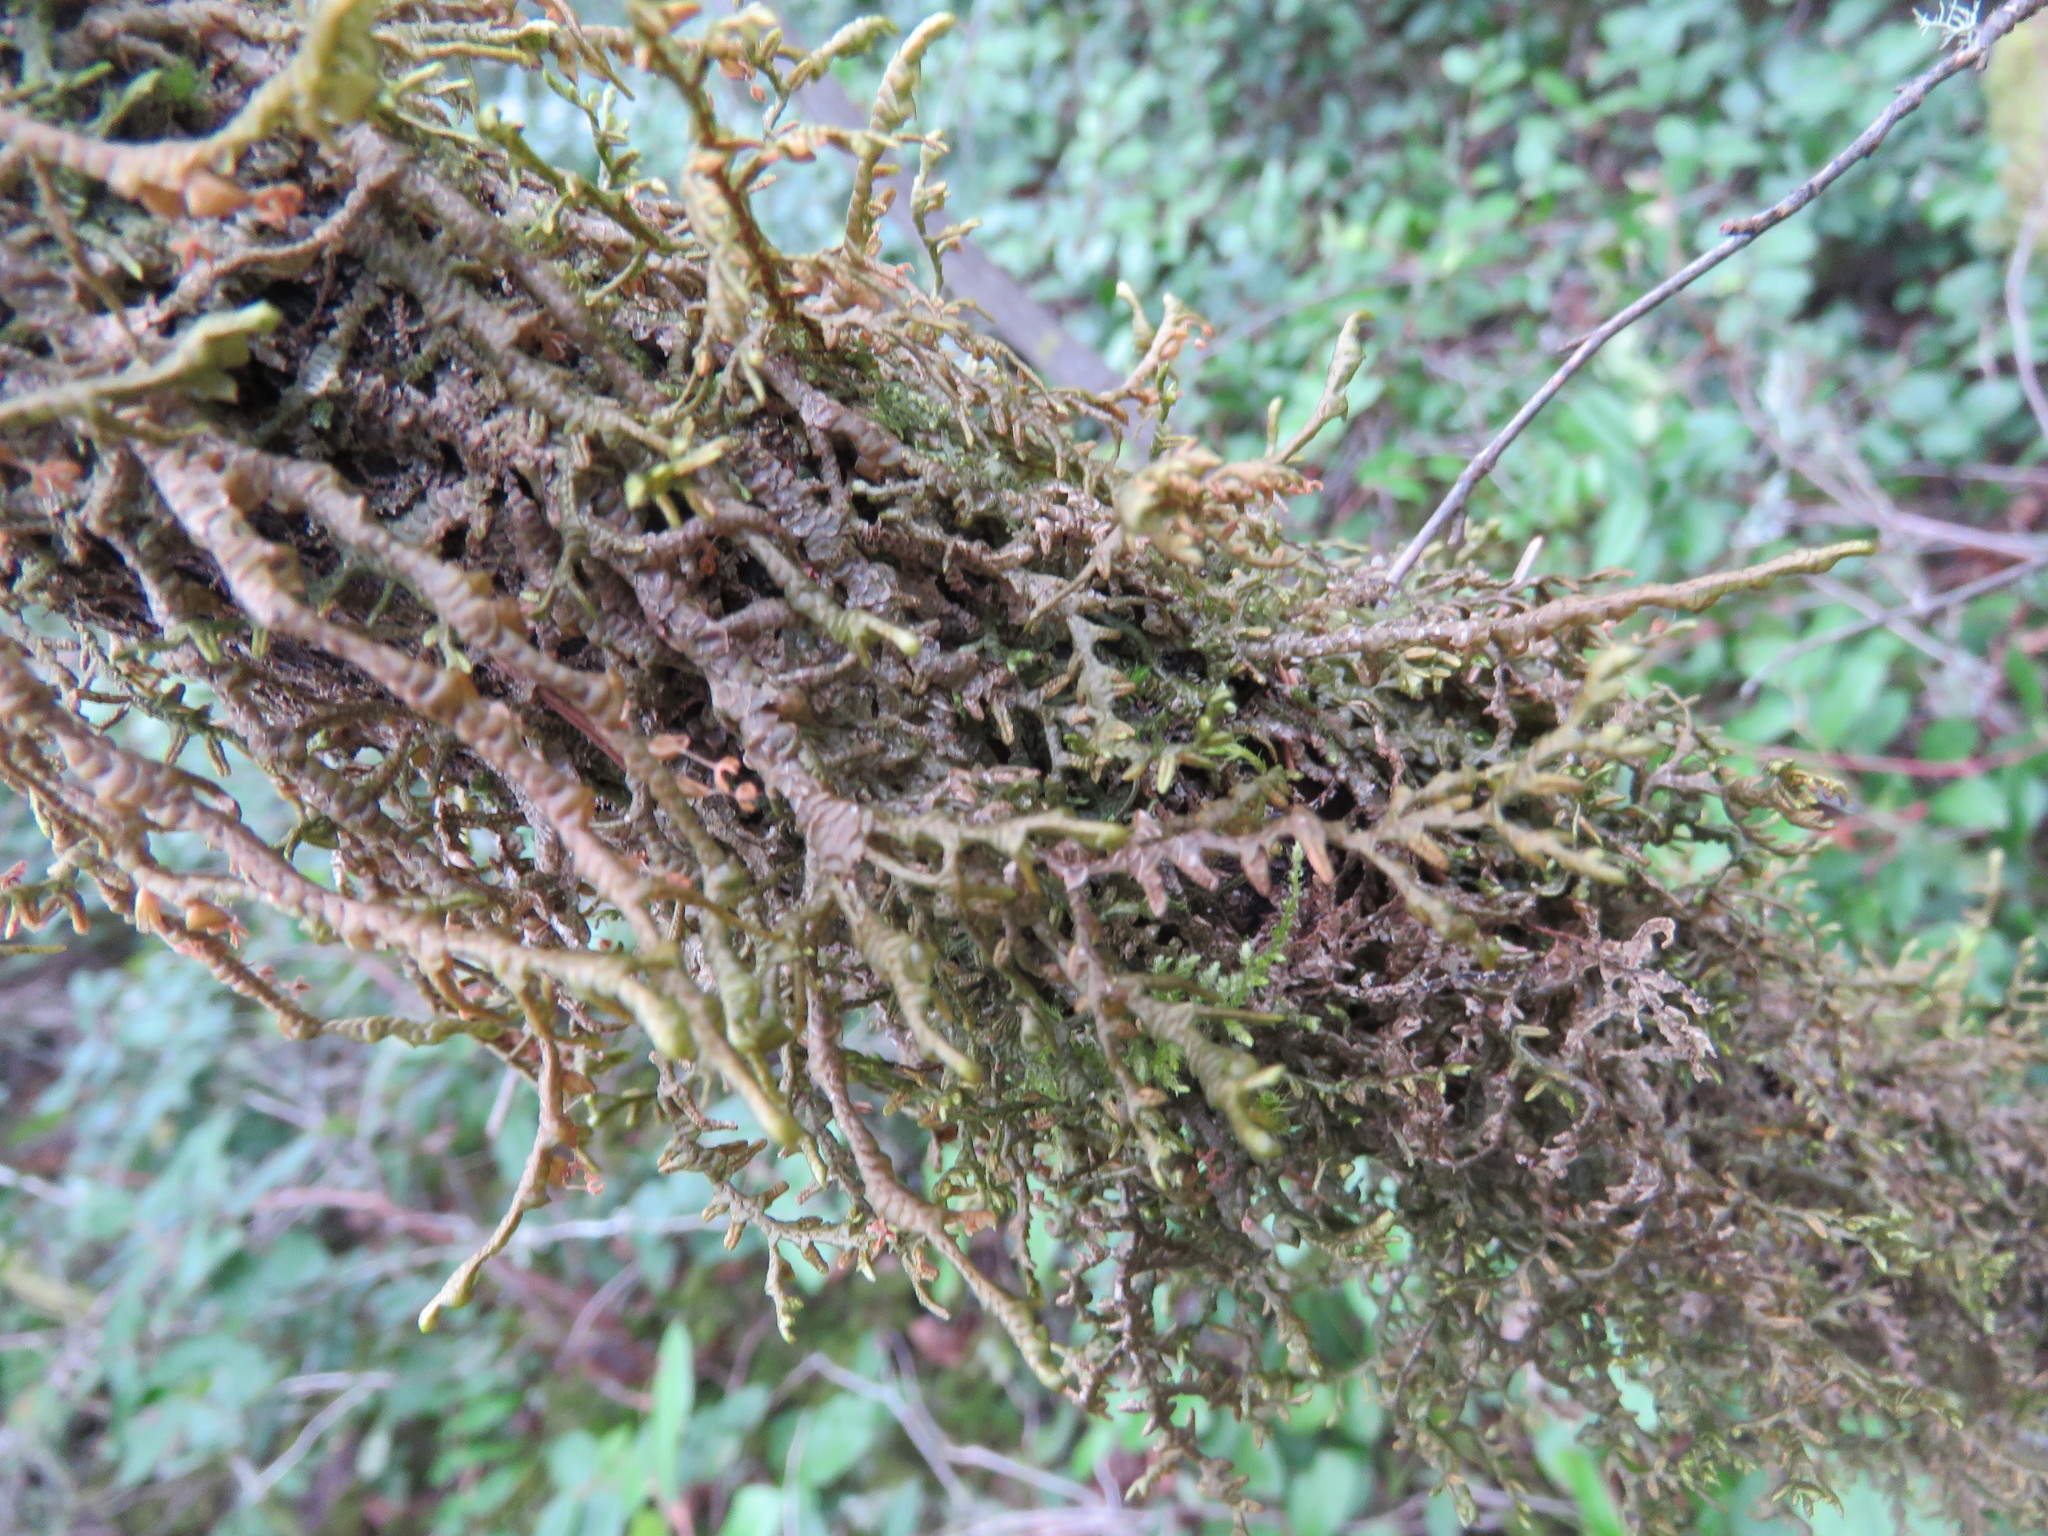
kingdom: Plantae
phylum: Marchantiophyta
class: Jungermanniopsida
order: Porellales
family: Porellaceae
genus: Porella
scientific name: Porella navicularis
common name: Tree ruffle liverwort
